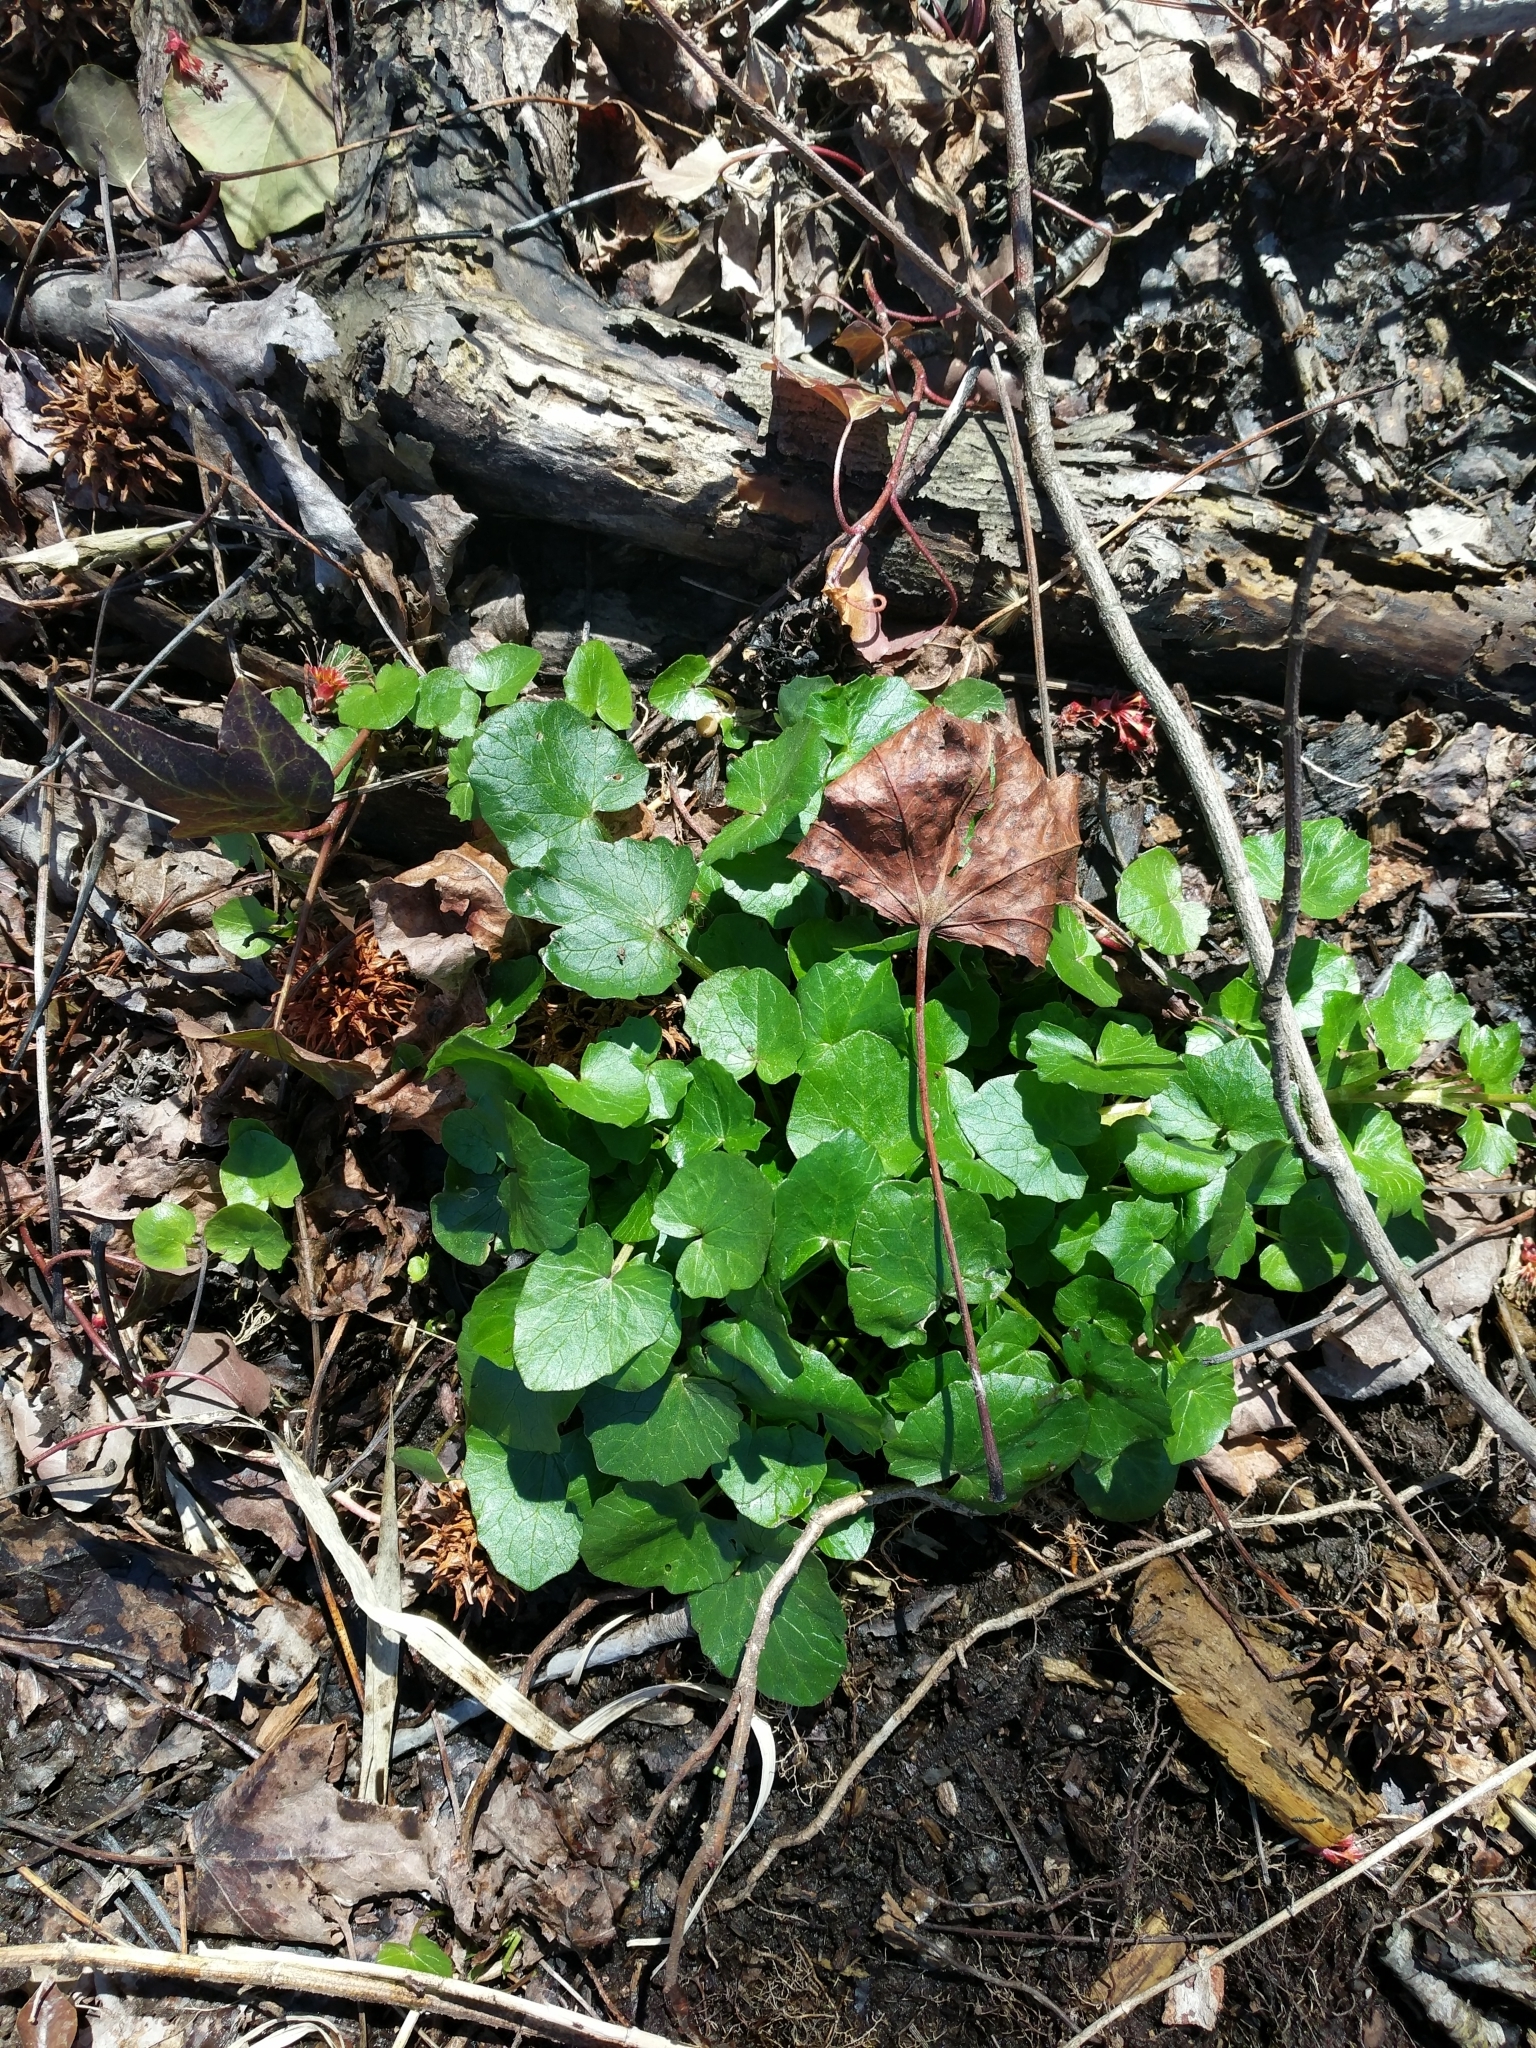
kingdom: Plantae
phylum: Tracheophyta
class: Magnoliopsida
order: Ranunculales
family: Ranunculaceae
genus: Ficaria
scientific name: Ficaria verna
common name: Lesser celandine
